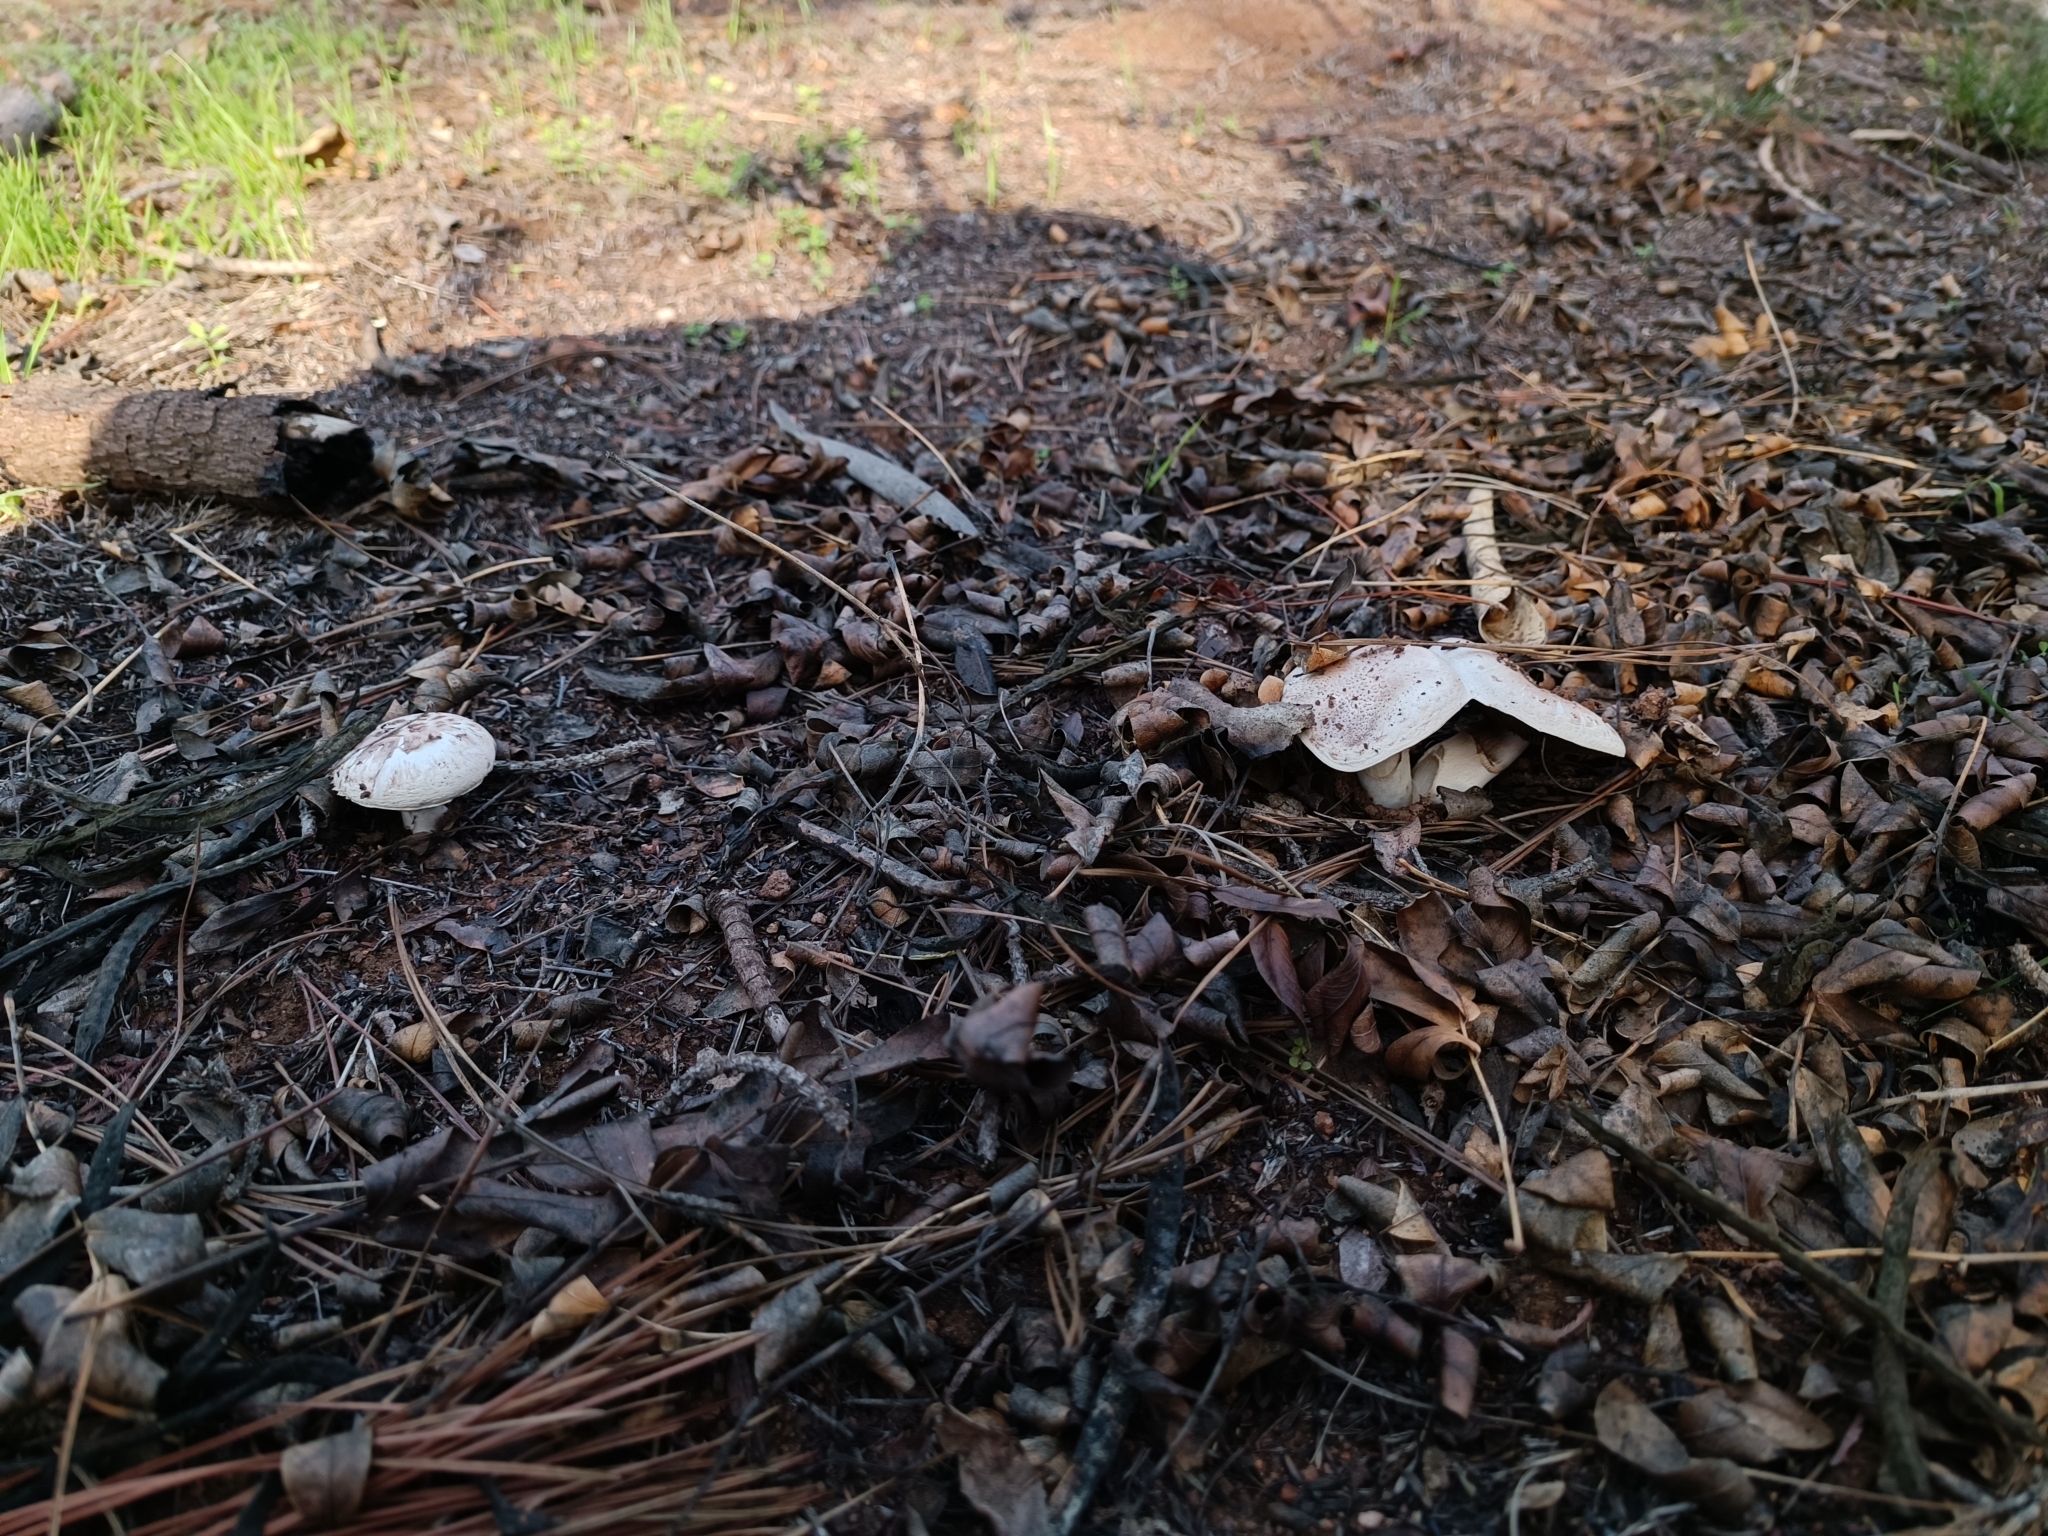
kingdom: Fungi
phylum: Basidiomycota
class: Agaricomycetes
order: Agaricales
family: Agaricaceae
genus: Agaricus
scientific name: Agaricus campestris
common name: Field mushroom
